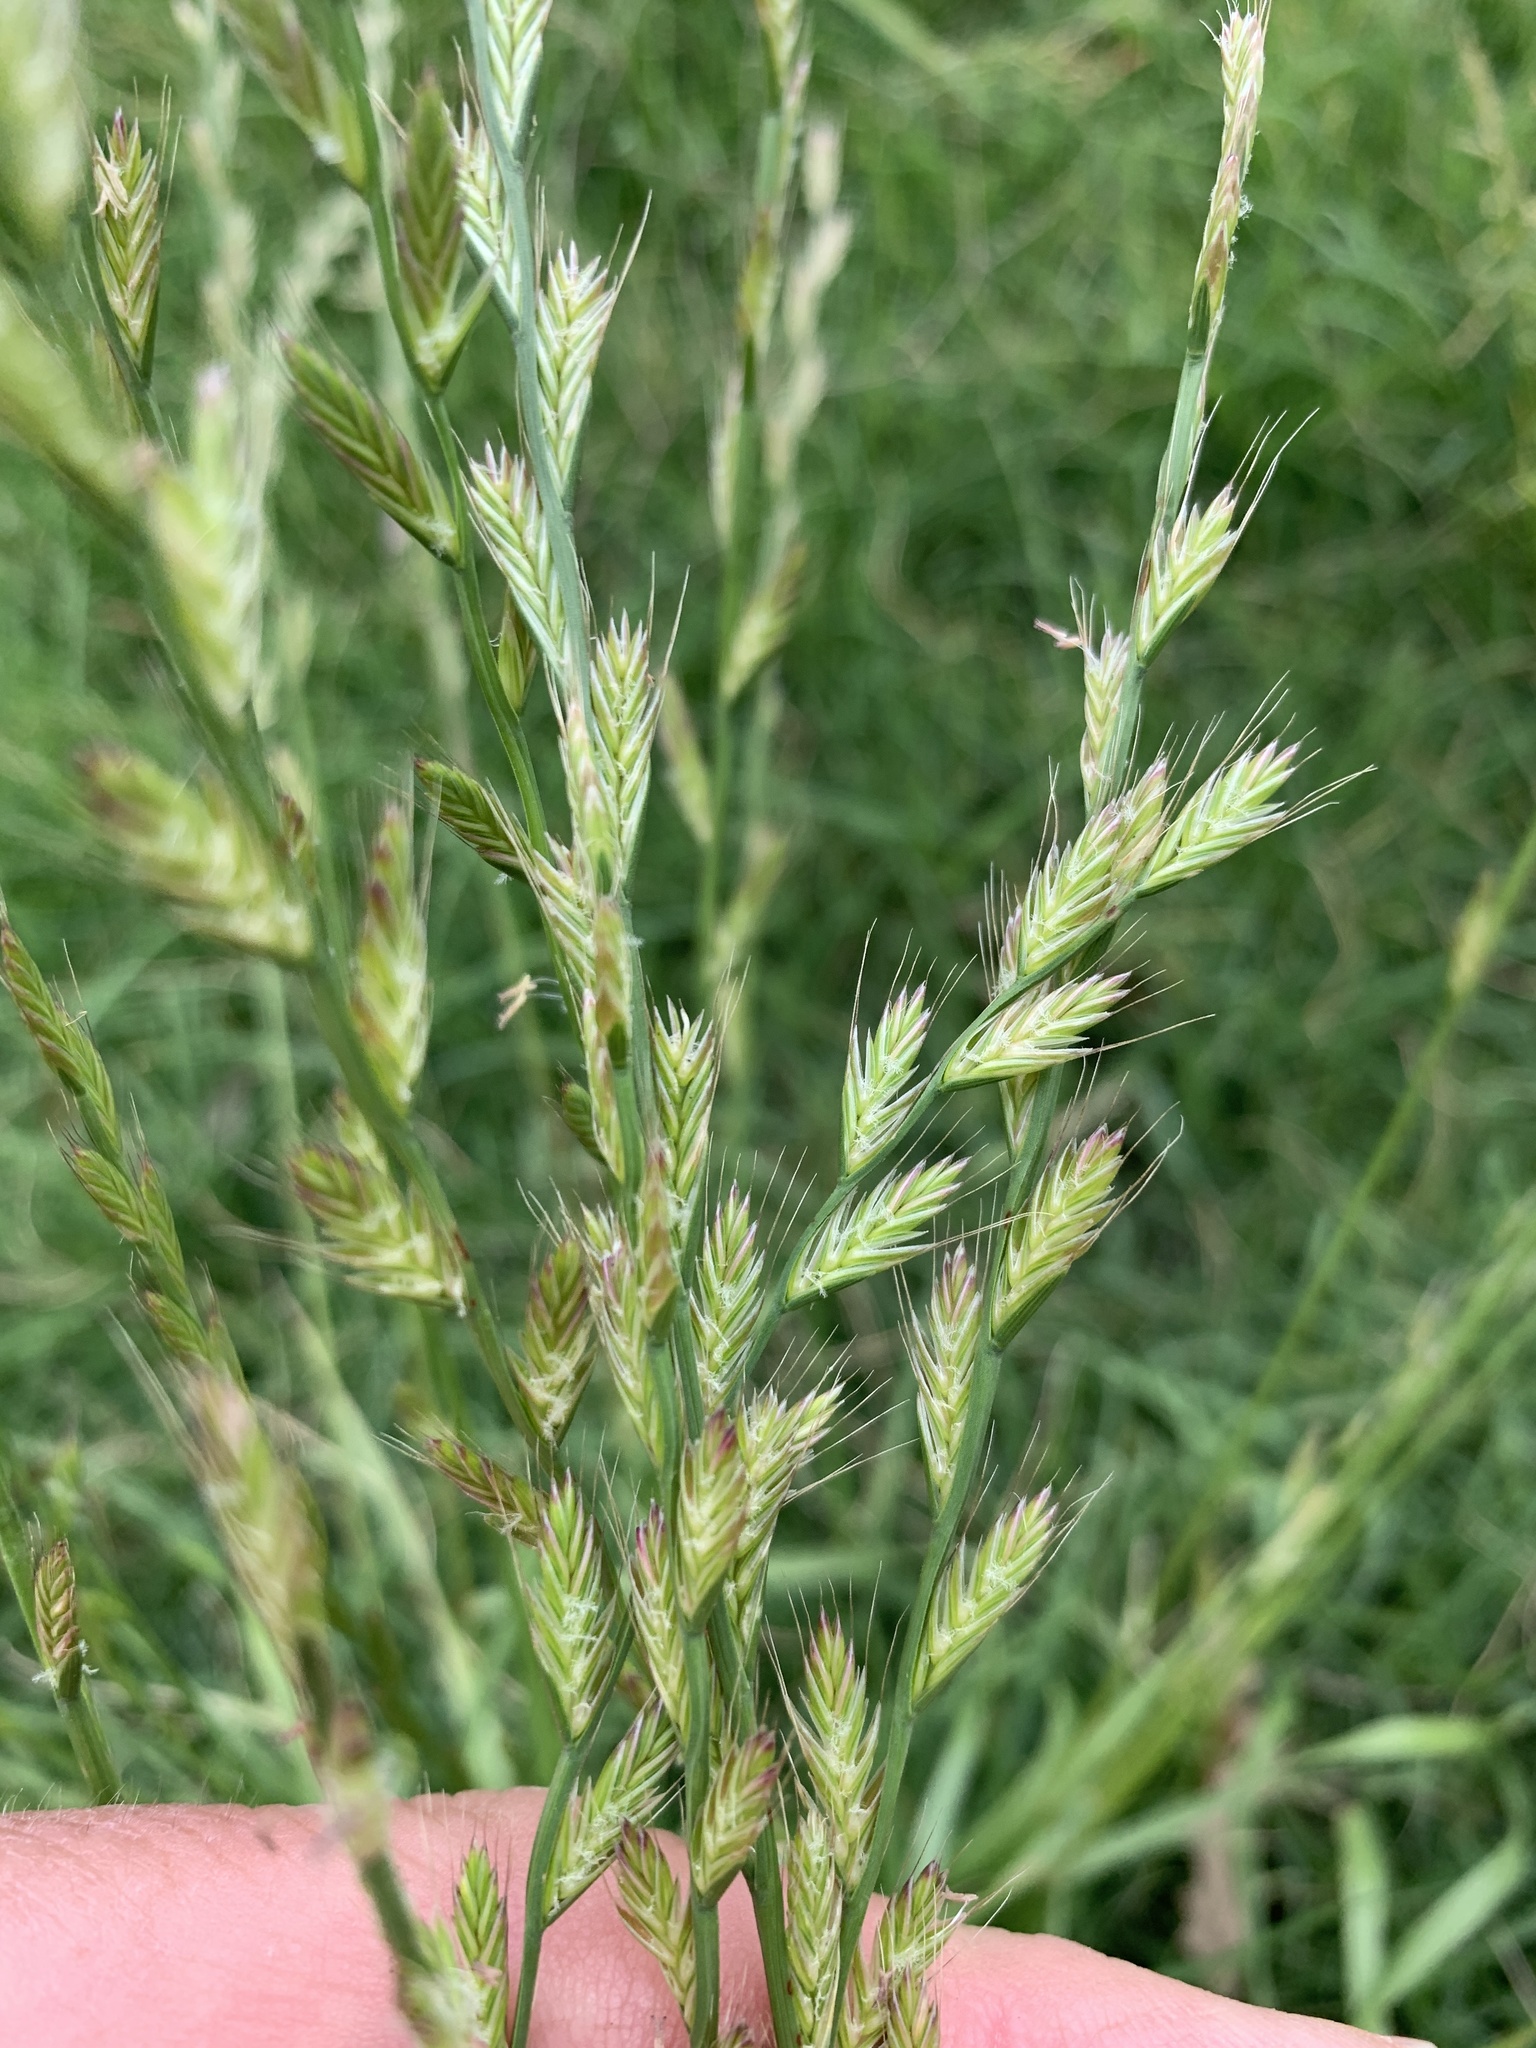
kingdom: Plantae
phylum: Tracheophyta
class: Liliopsida
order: Poales
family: Poaceae
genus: Lolium
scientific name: Lolium multiflorum
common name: Annual ryegrass
